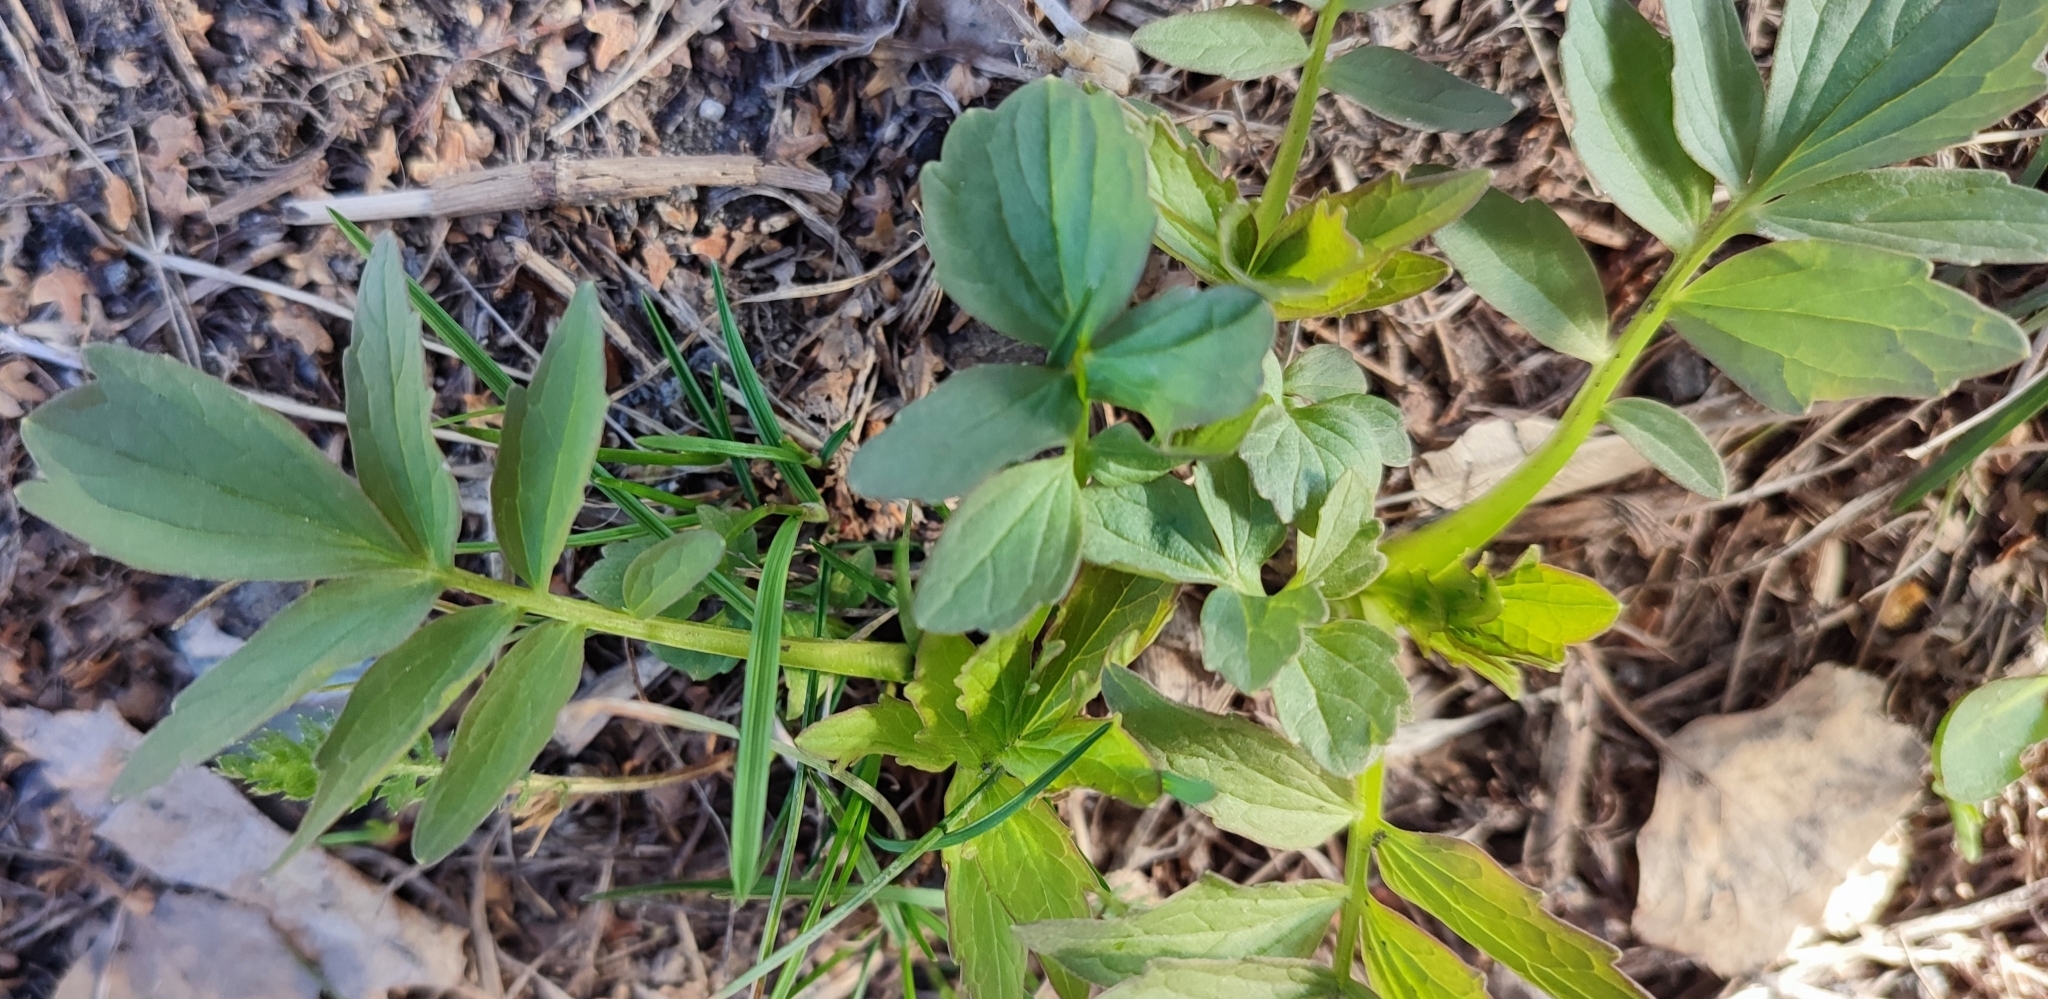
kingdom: Plantae
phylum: Tracheophyta
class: Magnoliopsida
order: Dipsacales
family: Caprifoliaceae
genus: Valeriana
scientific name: Valeriana wolgensis
